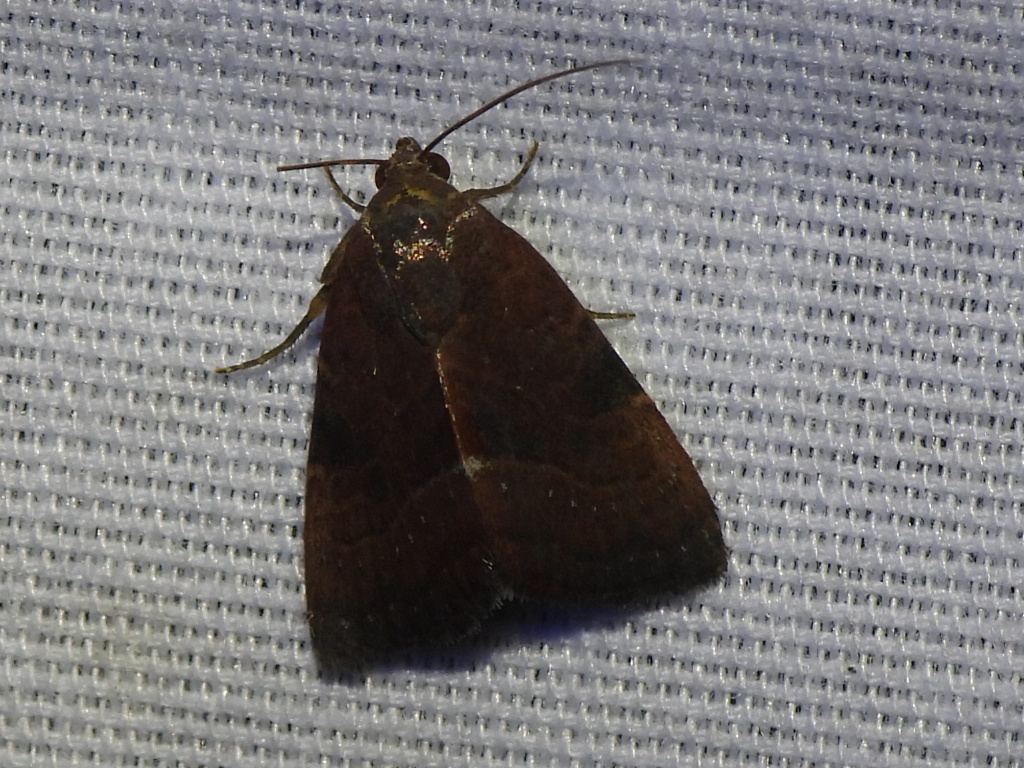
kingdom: Animalia
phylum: Arthropoda
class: Insecta
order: Lepidoptera
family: Noctuidae
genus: Galgula
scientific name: Galgula partita
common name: Wedgeling
